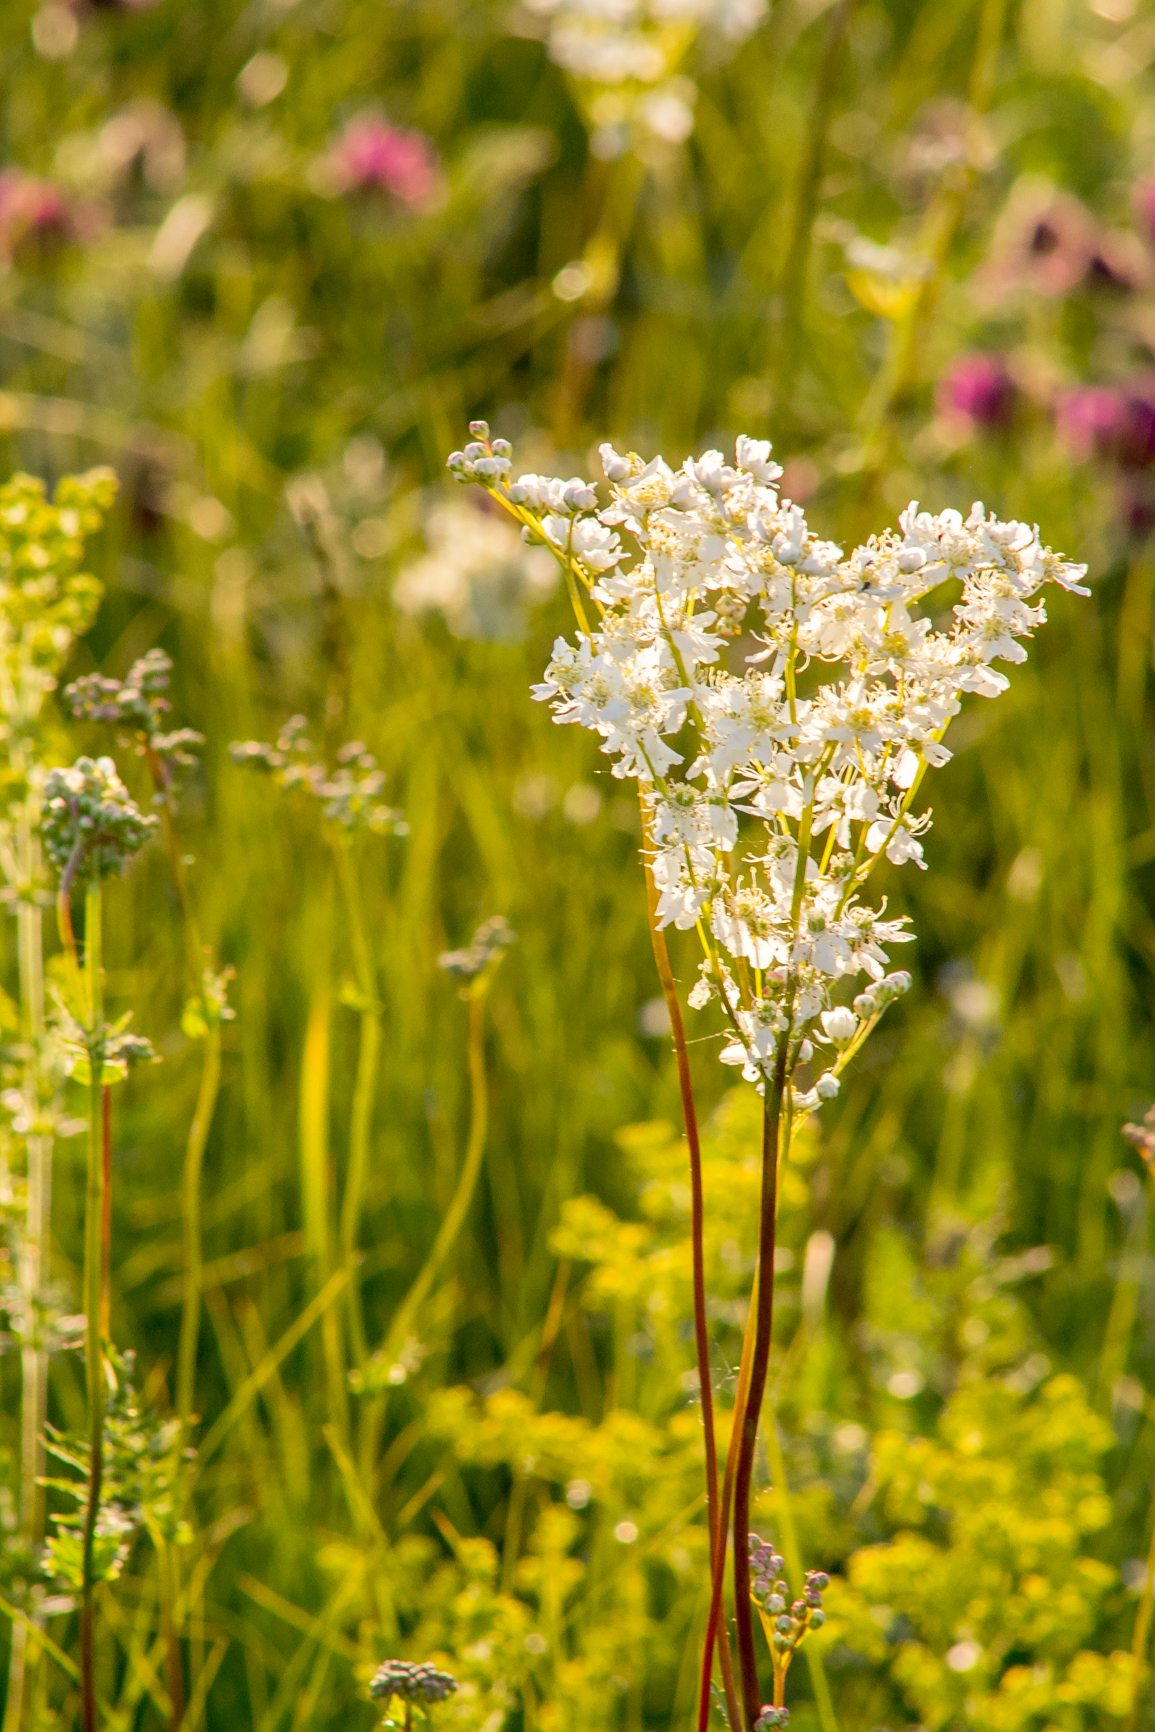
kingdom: Plantae
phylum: Tracheophyta
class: Magnoliopsida
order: Rosales
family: Rosaceae
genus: Filipendula
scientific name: Filipendula vulgaris
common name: Dropwort
